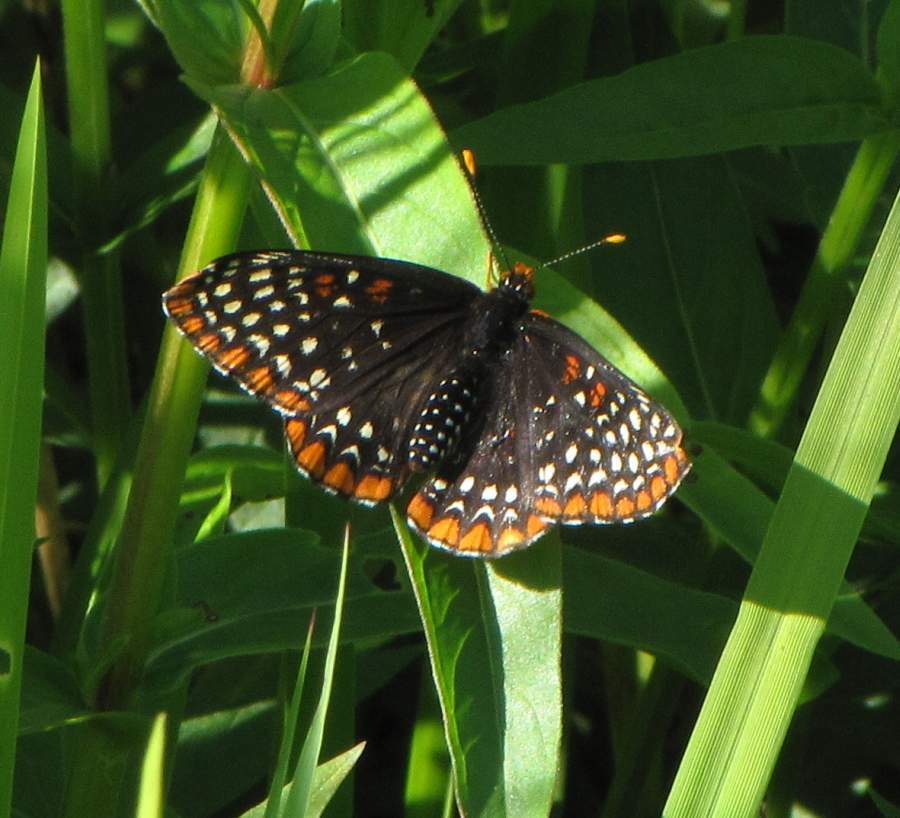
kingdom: Animalia
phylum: Arthropoda
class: Insecta
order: Lepidoptera
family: Nymphalidae
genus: Euphydryas
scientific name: Euphydryas phaeton
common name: Baltimore checkerspot
